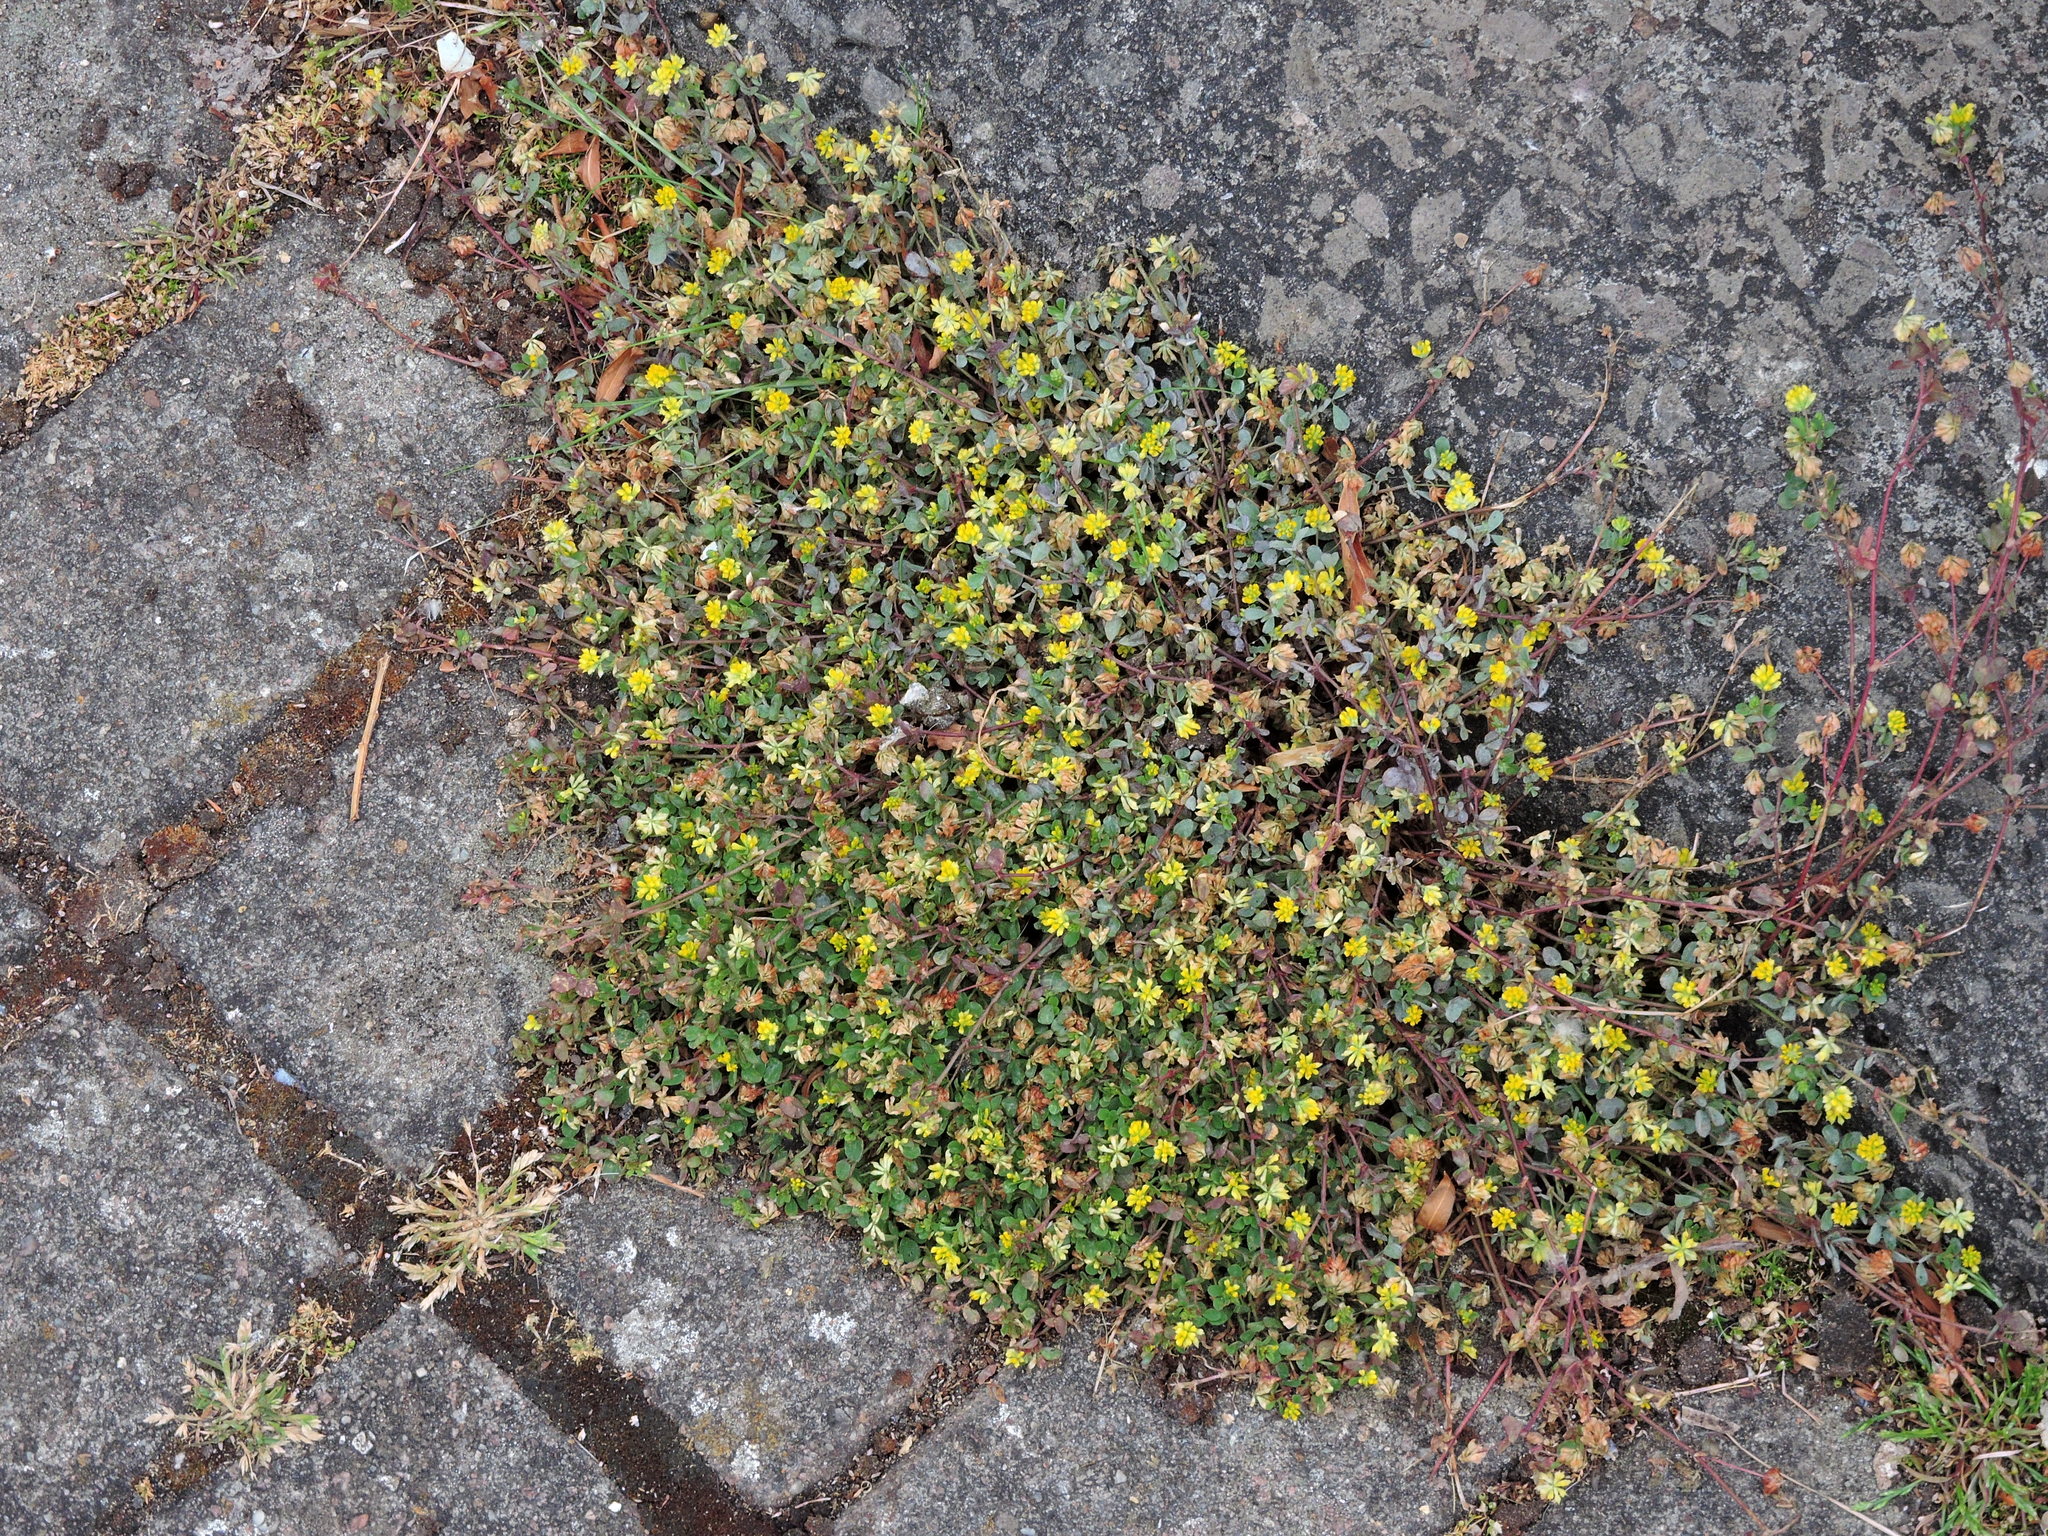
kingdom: Plantae
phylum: Tracheophyta
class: Magnoliopsida
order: Fabales
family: Fabaceae
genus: Trifolium
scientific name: Trifolium dubium
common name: Suckling clover
